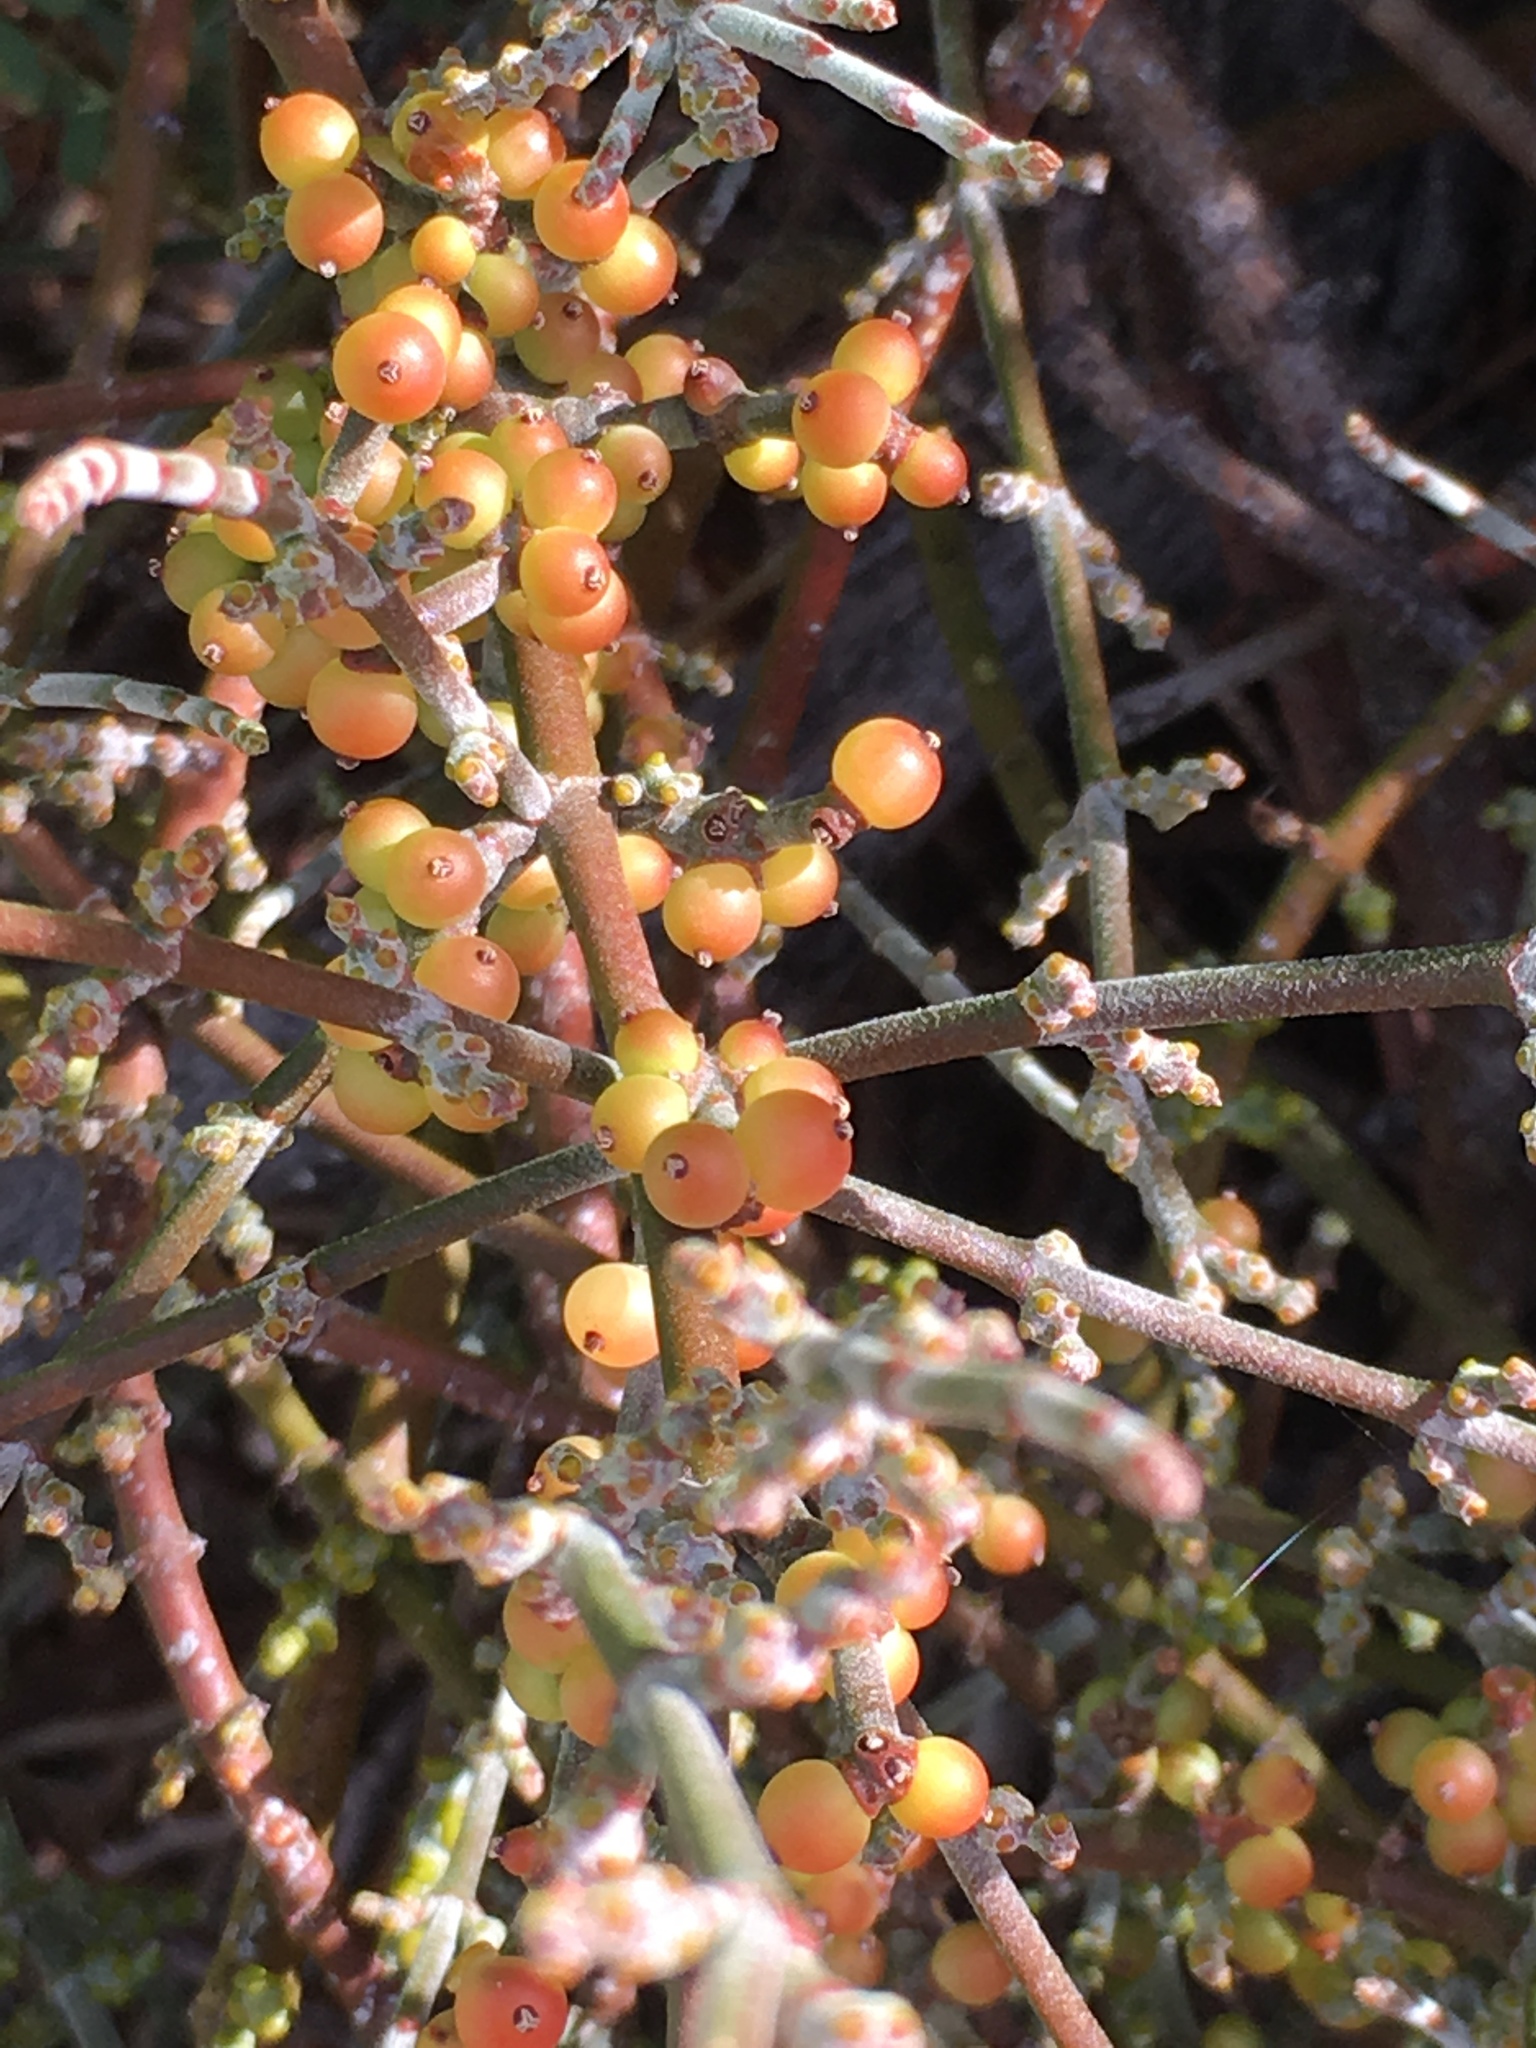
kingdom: Plantae
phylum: Tracheophyta
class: Magnoliopsida
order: Santalales
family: Viscaceae
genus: Phoradendron
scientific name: Phoradendron californicum
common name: Acacia mistletoe
